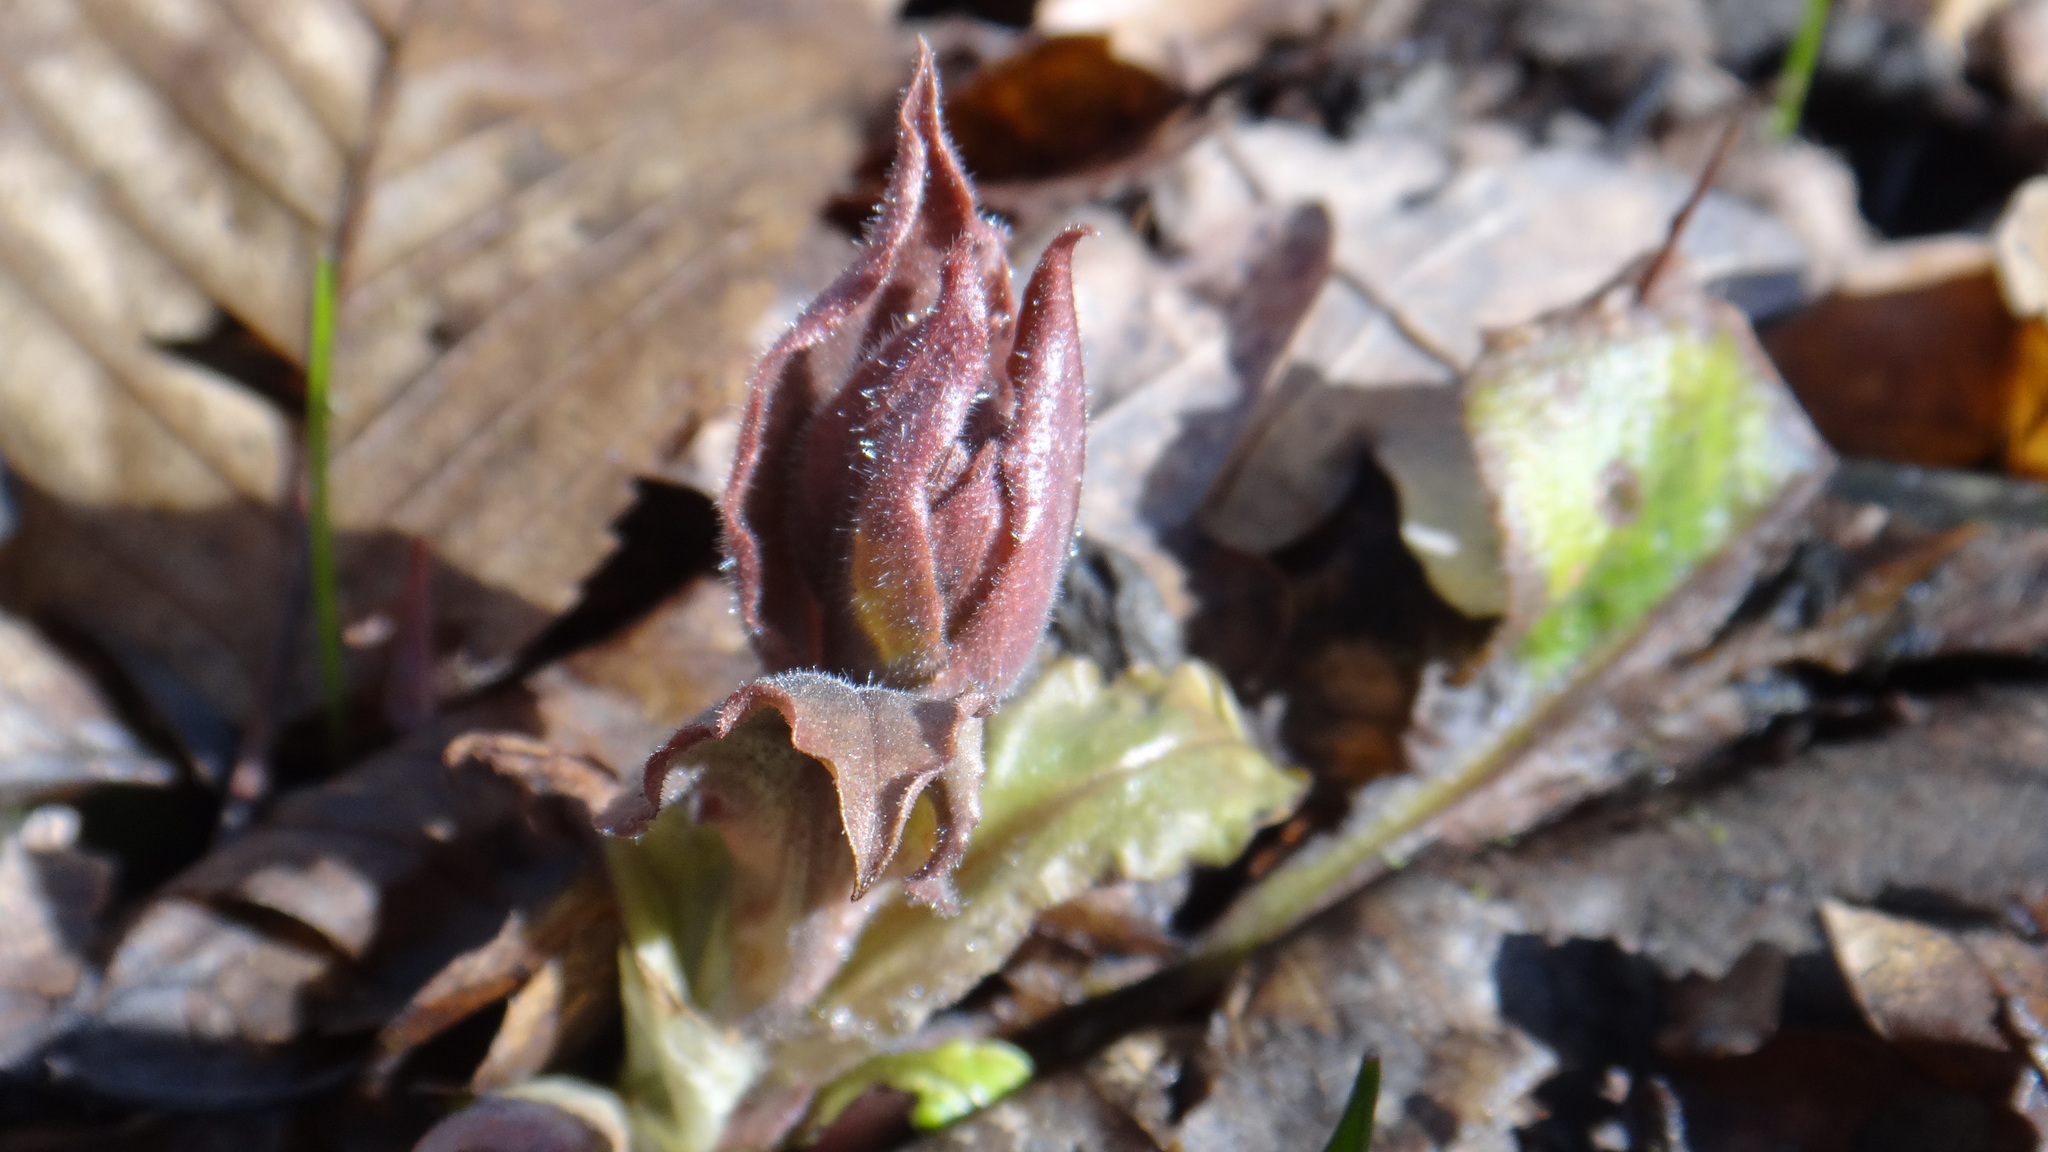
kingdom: Plantae
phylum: Tracheophyta
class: Magnoliopsida
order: Boraginales
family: Boraginaceae
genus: Pulmonaria
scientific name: Pulmonaria obscura
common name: Suffolk lungwort
